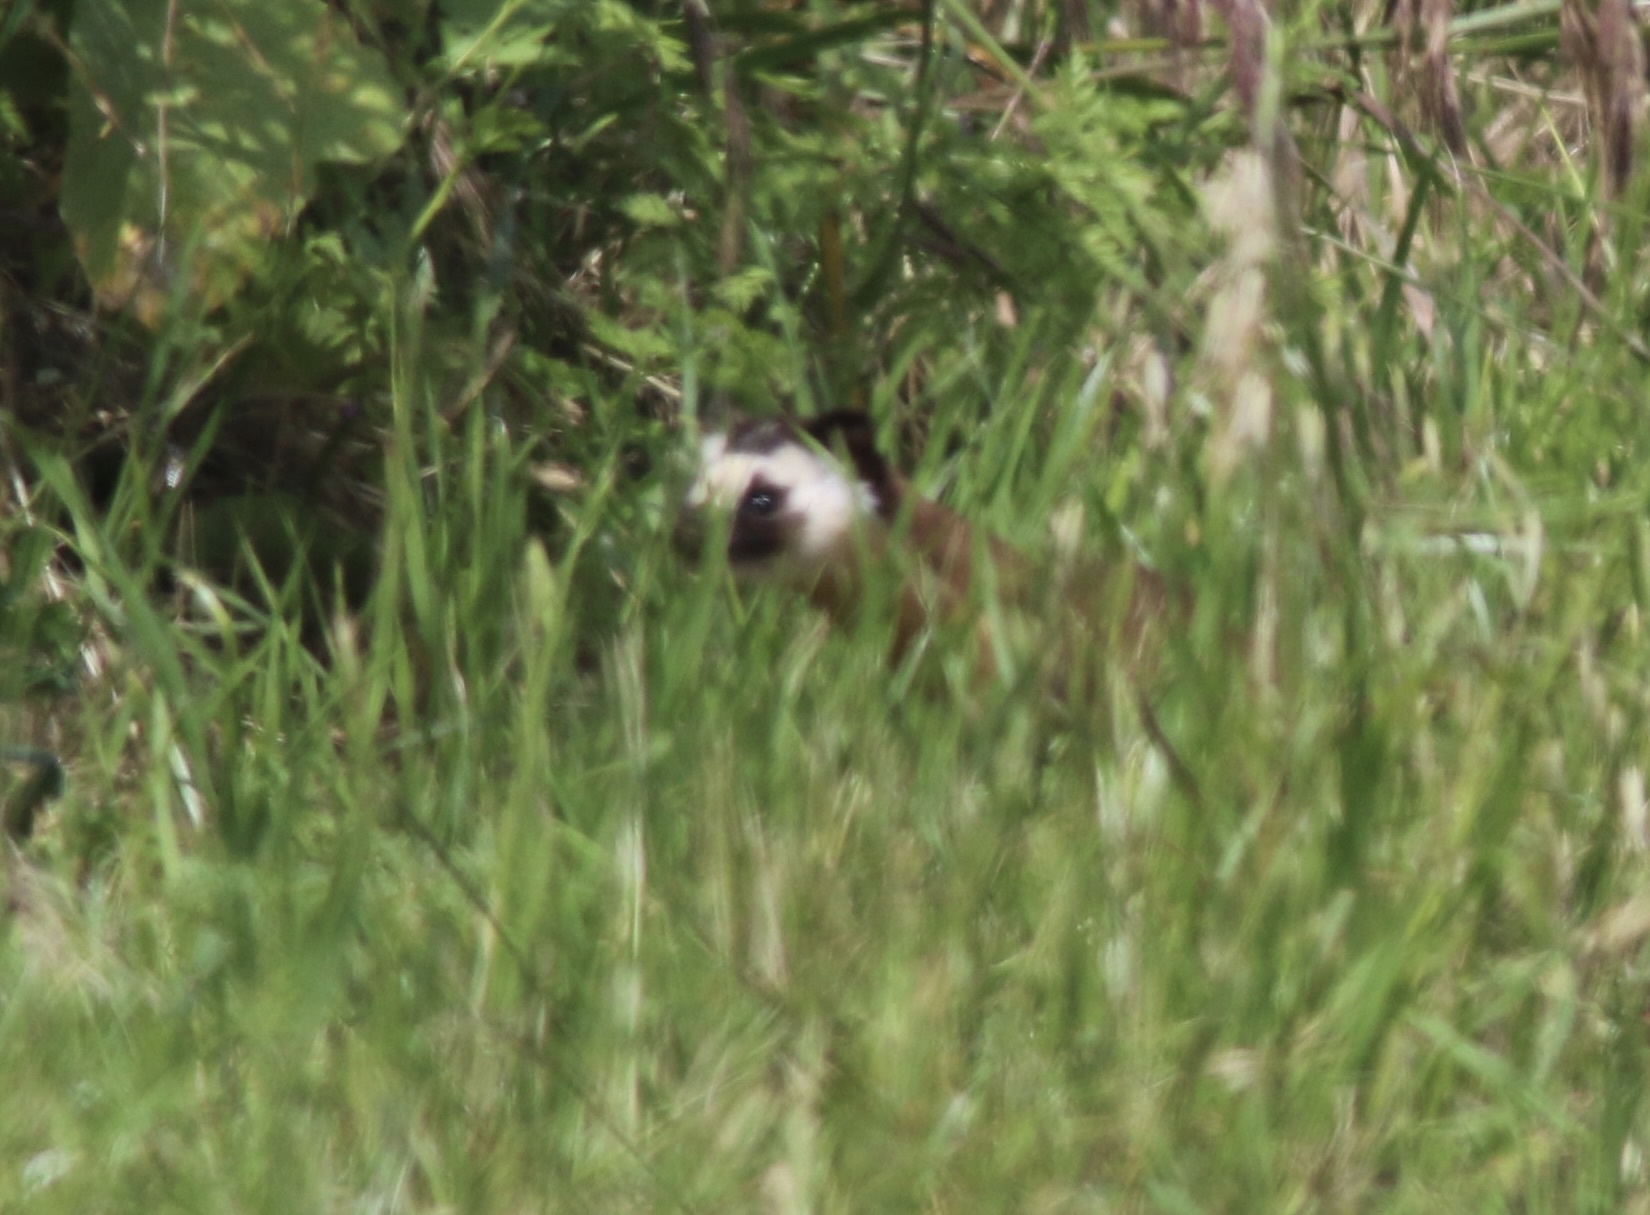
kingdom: Animalia
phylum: Chordata
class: Mammalia
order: Carnivora
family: Mustelidae
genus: Mustela
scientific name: Mustela
